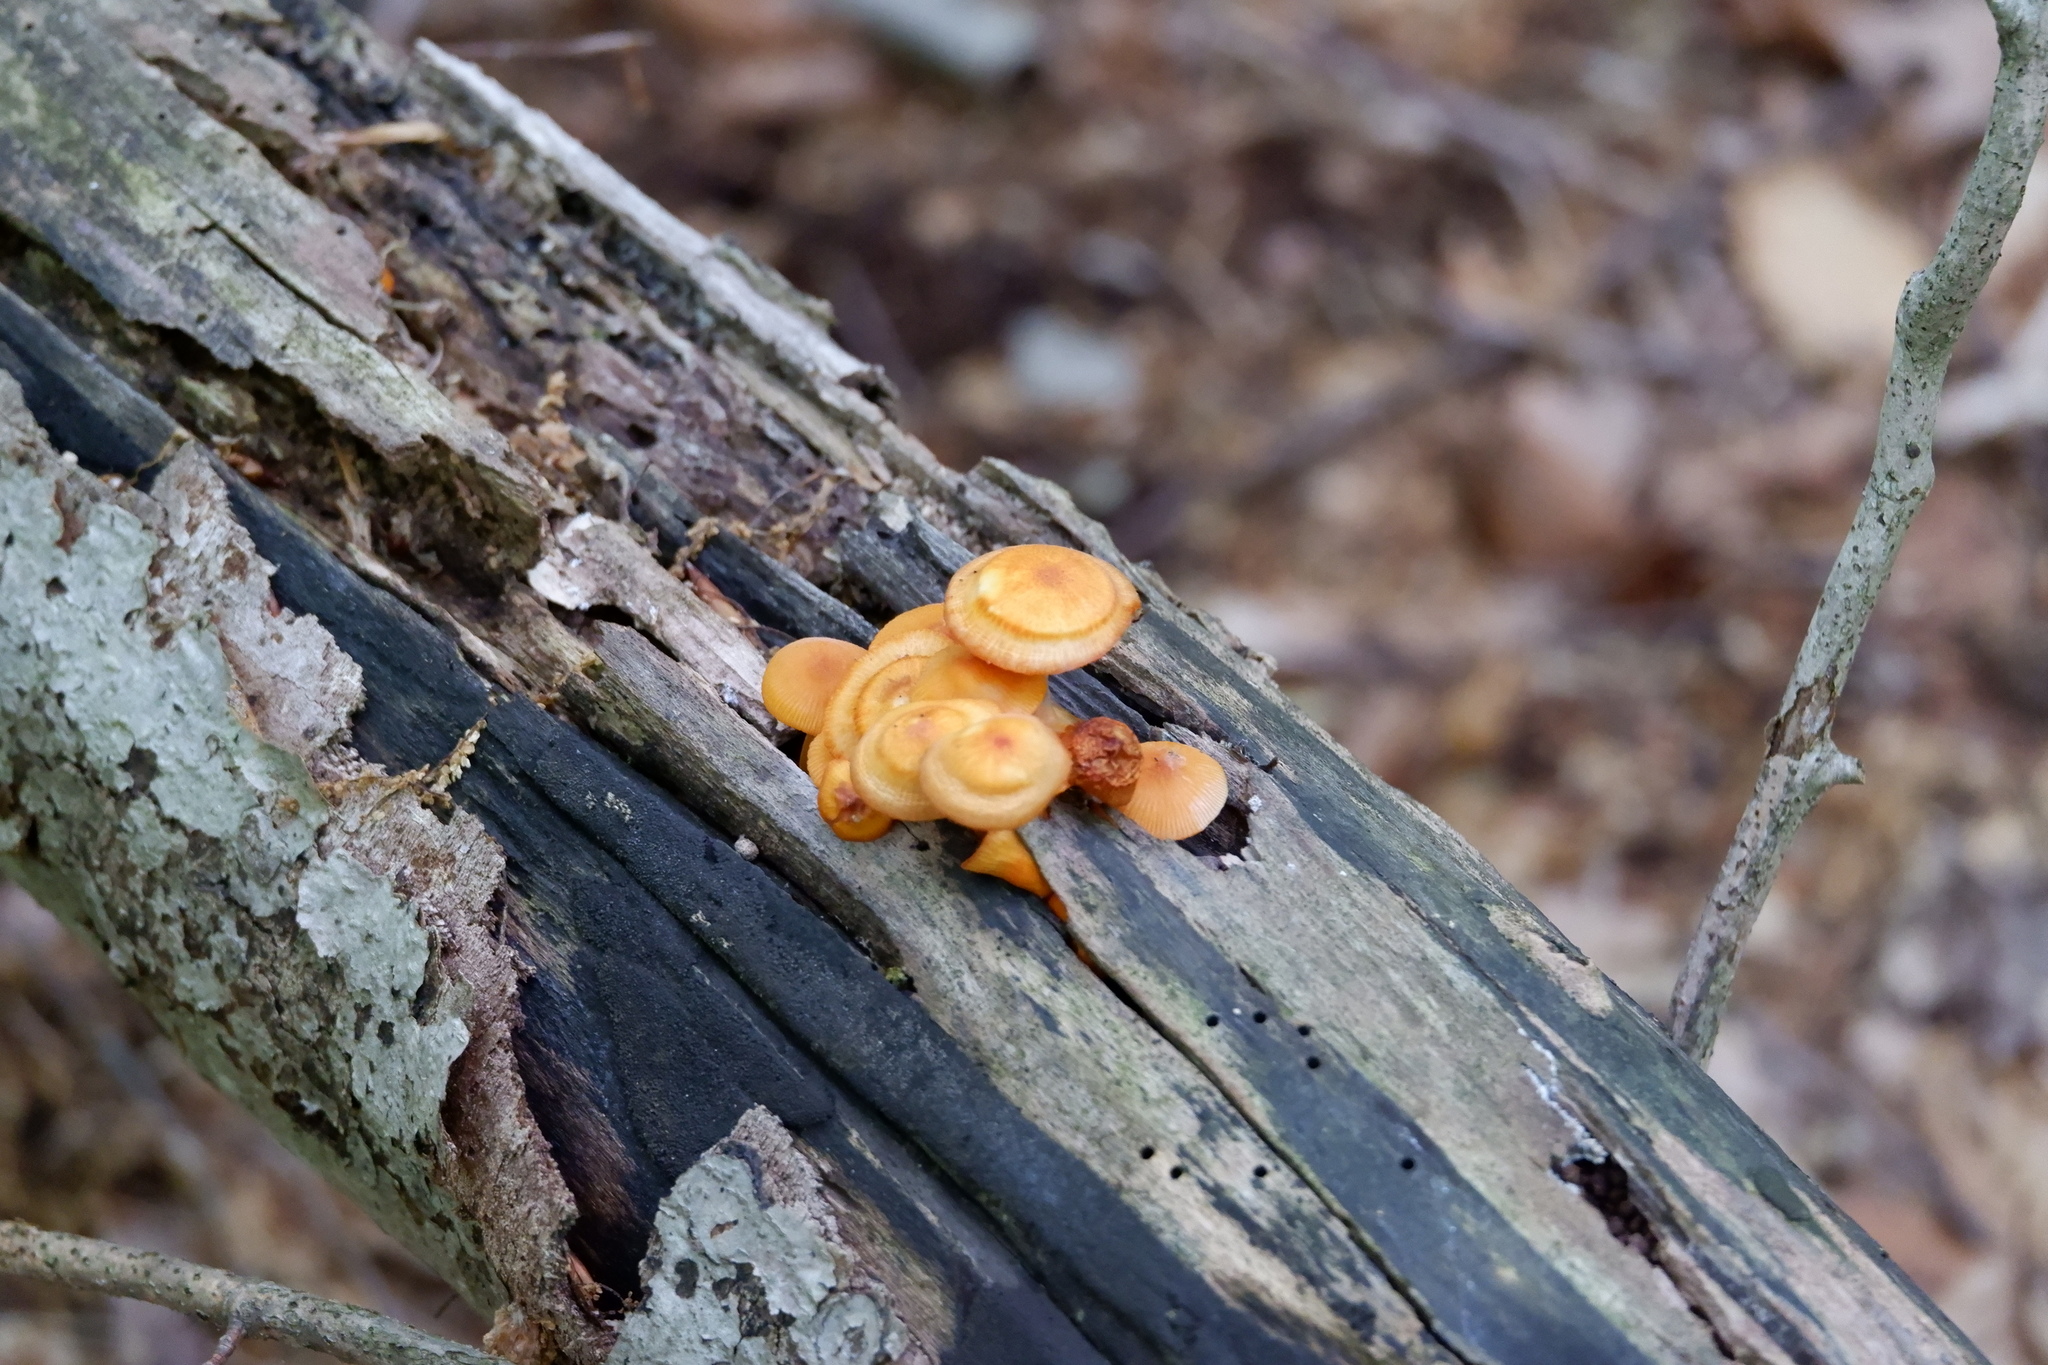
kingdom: Fungi
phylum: Basidiomycota
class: Agaricomycetes
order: Agaricales
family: Mycenaceae
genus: Mycena
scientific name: Mycena leaiana
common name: Orange mycena
